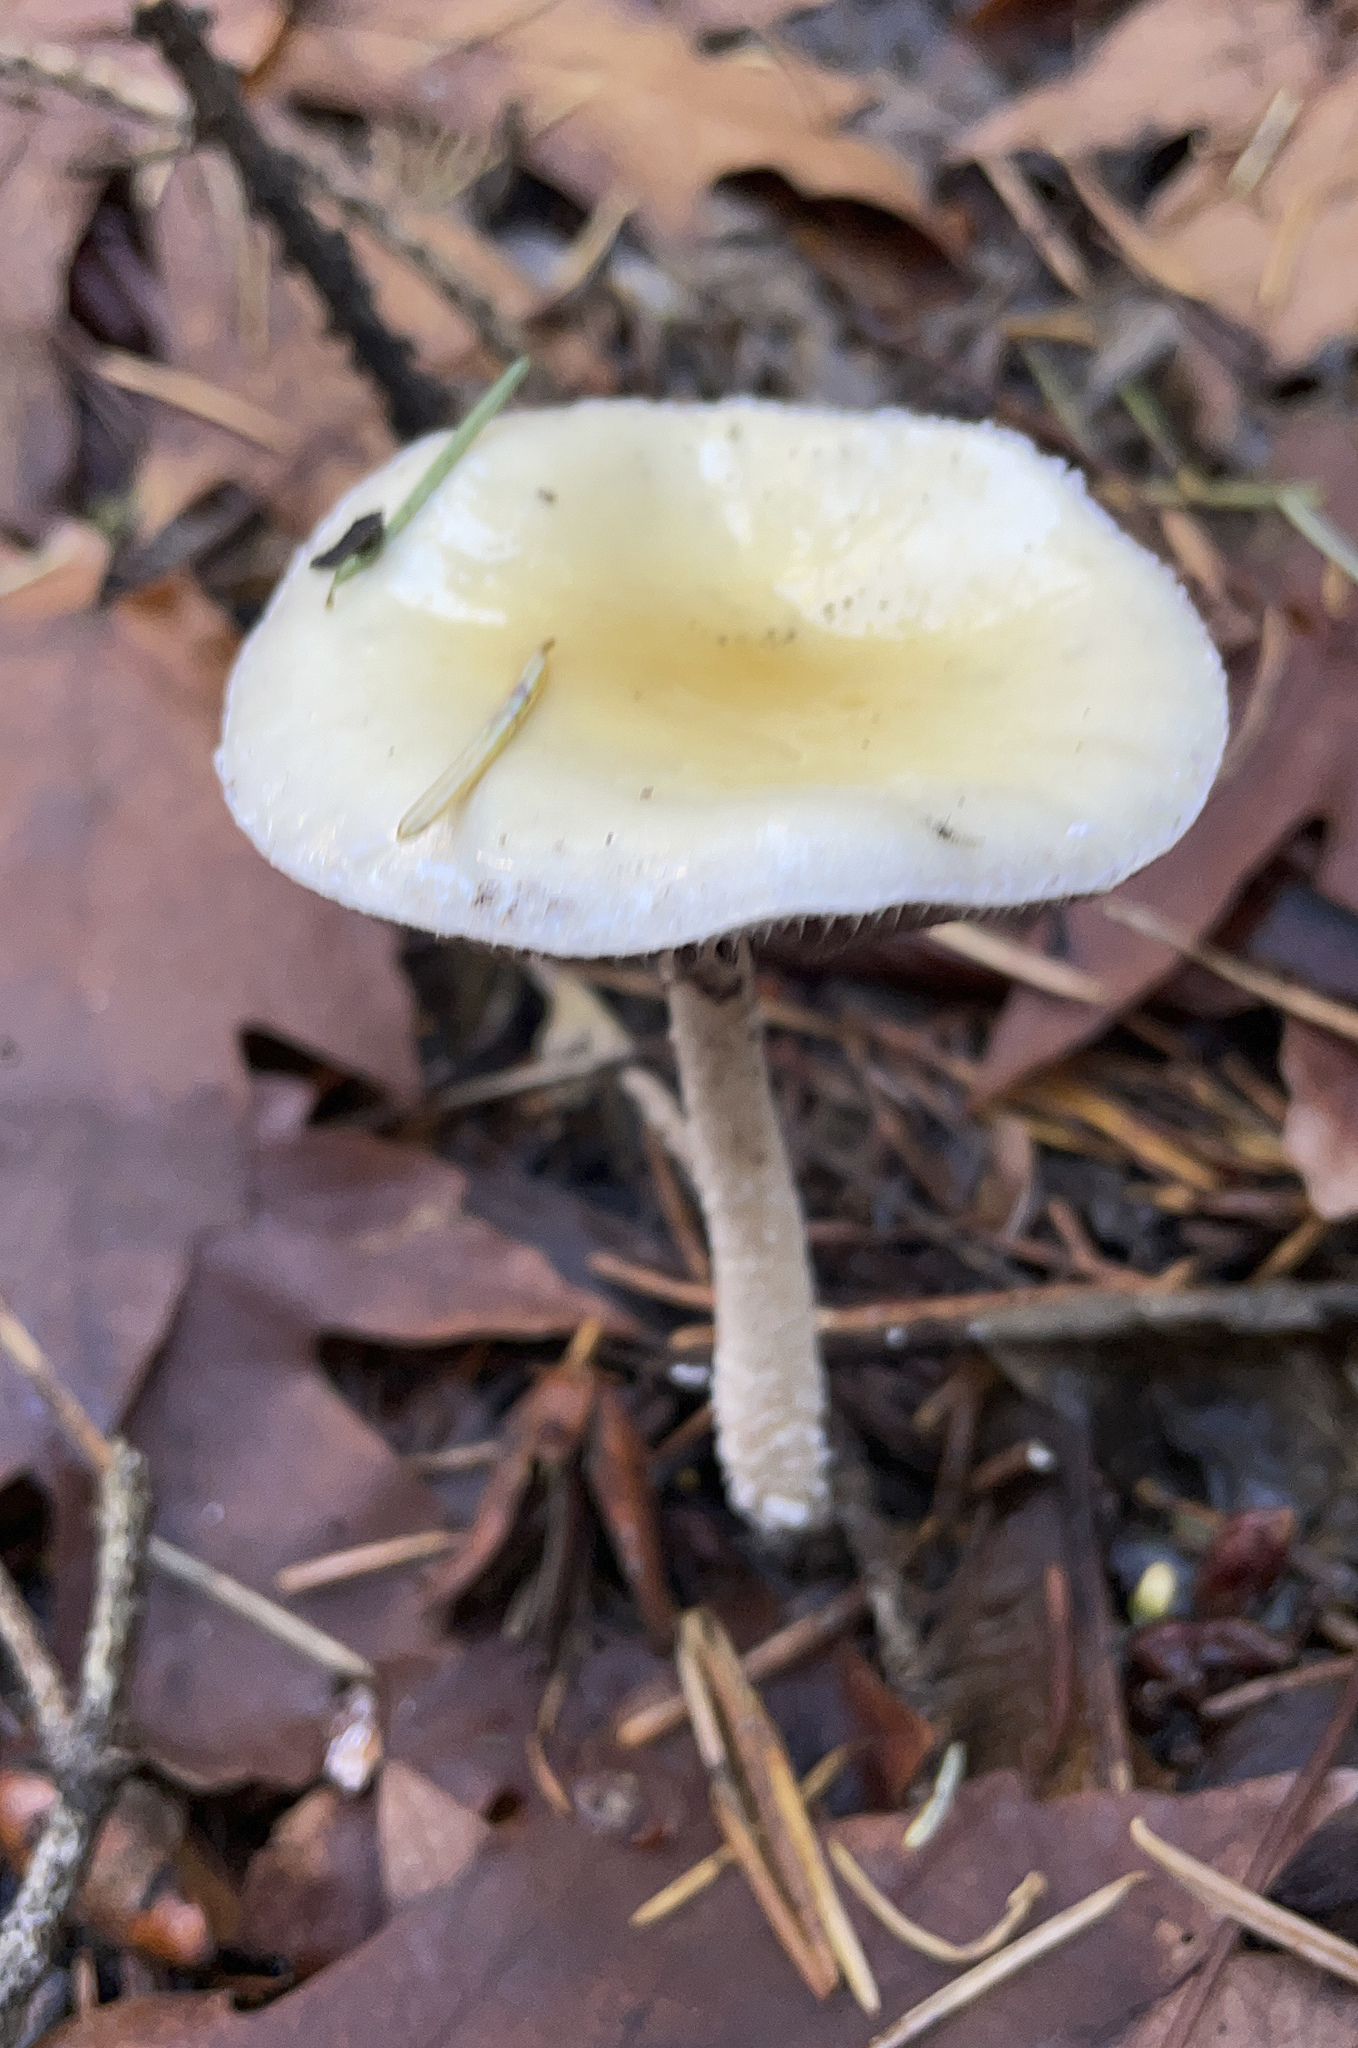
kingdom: Fungi
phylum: Basidiomycota
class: Agaricomycetes
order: Agaricales
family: Strophariaceae
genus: Stropharia
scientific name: Stropharia ambigua
